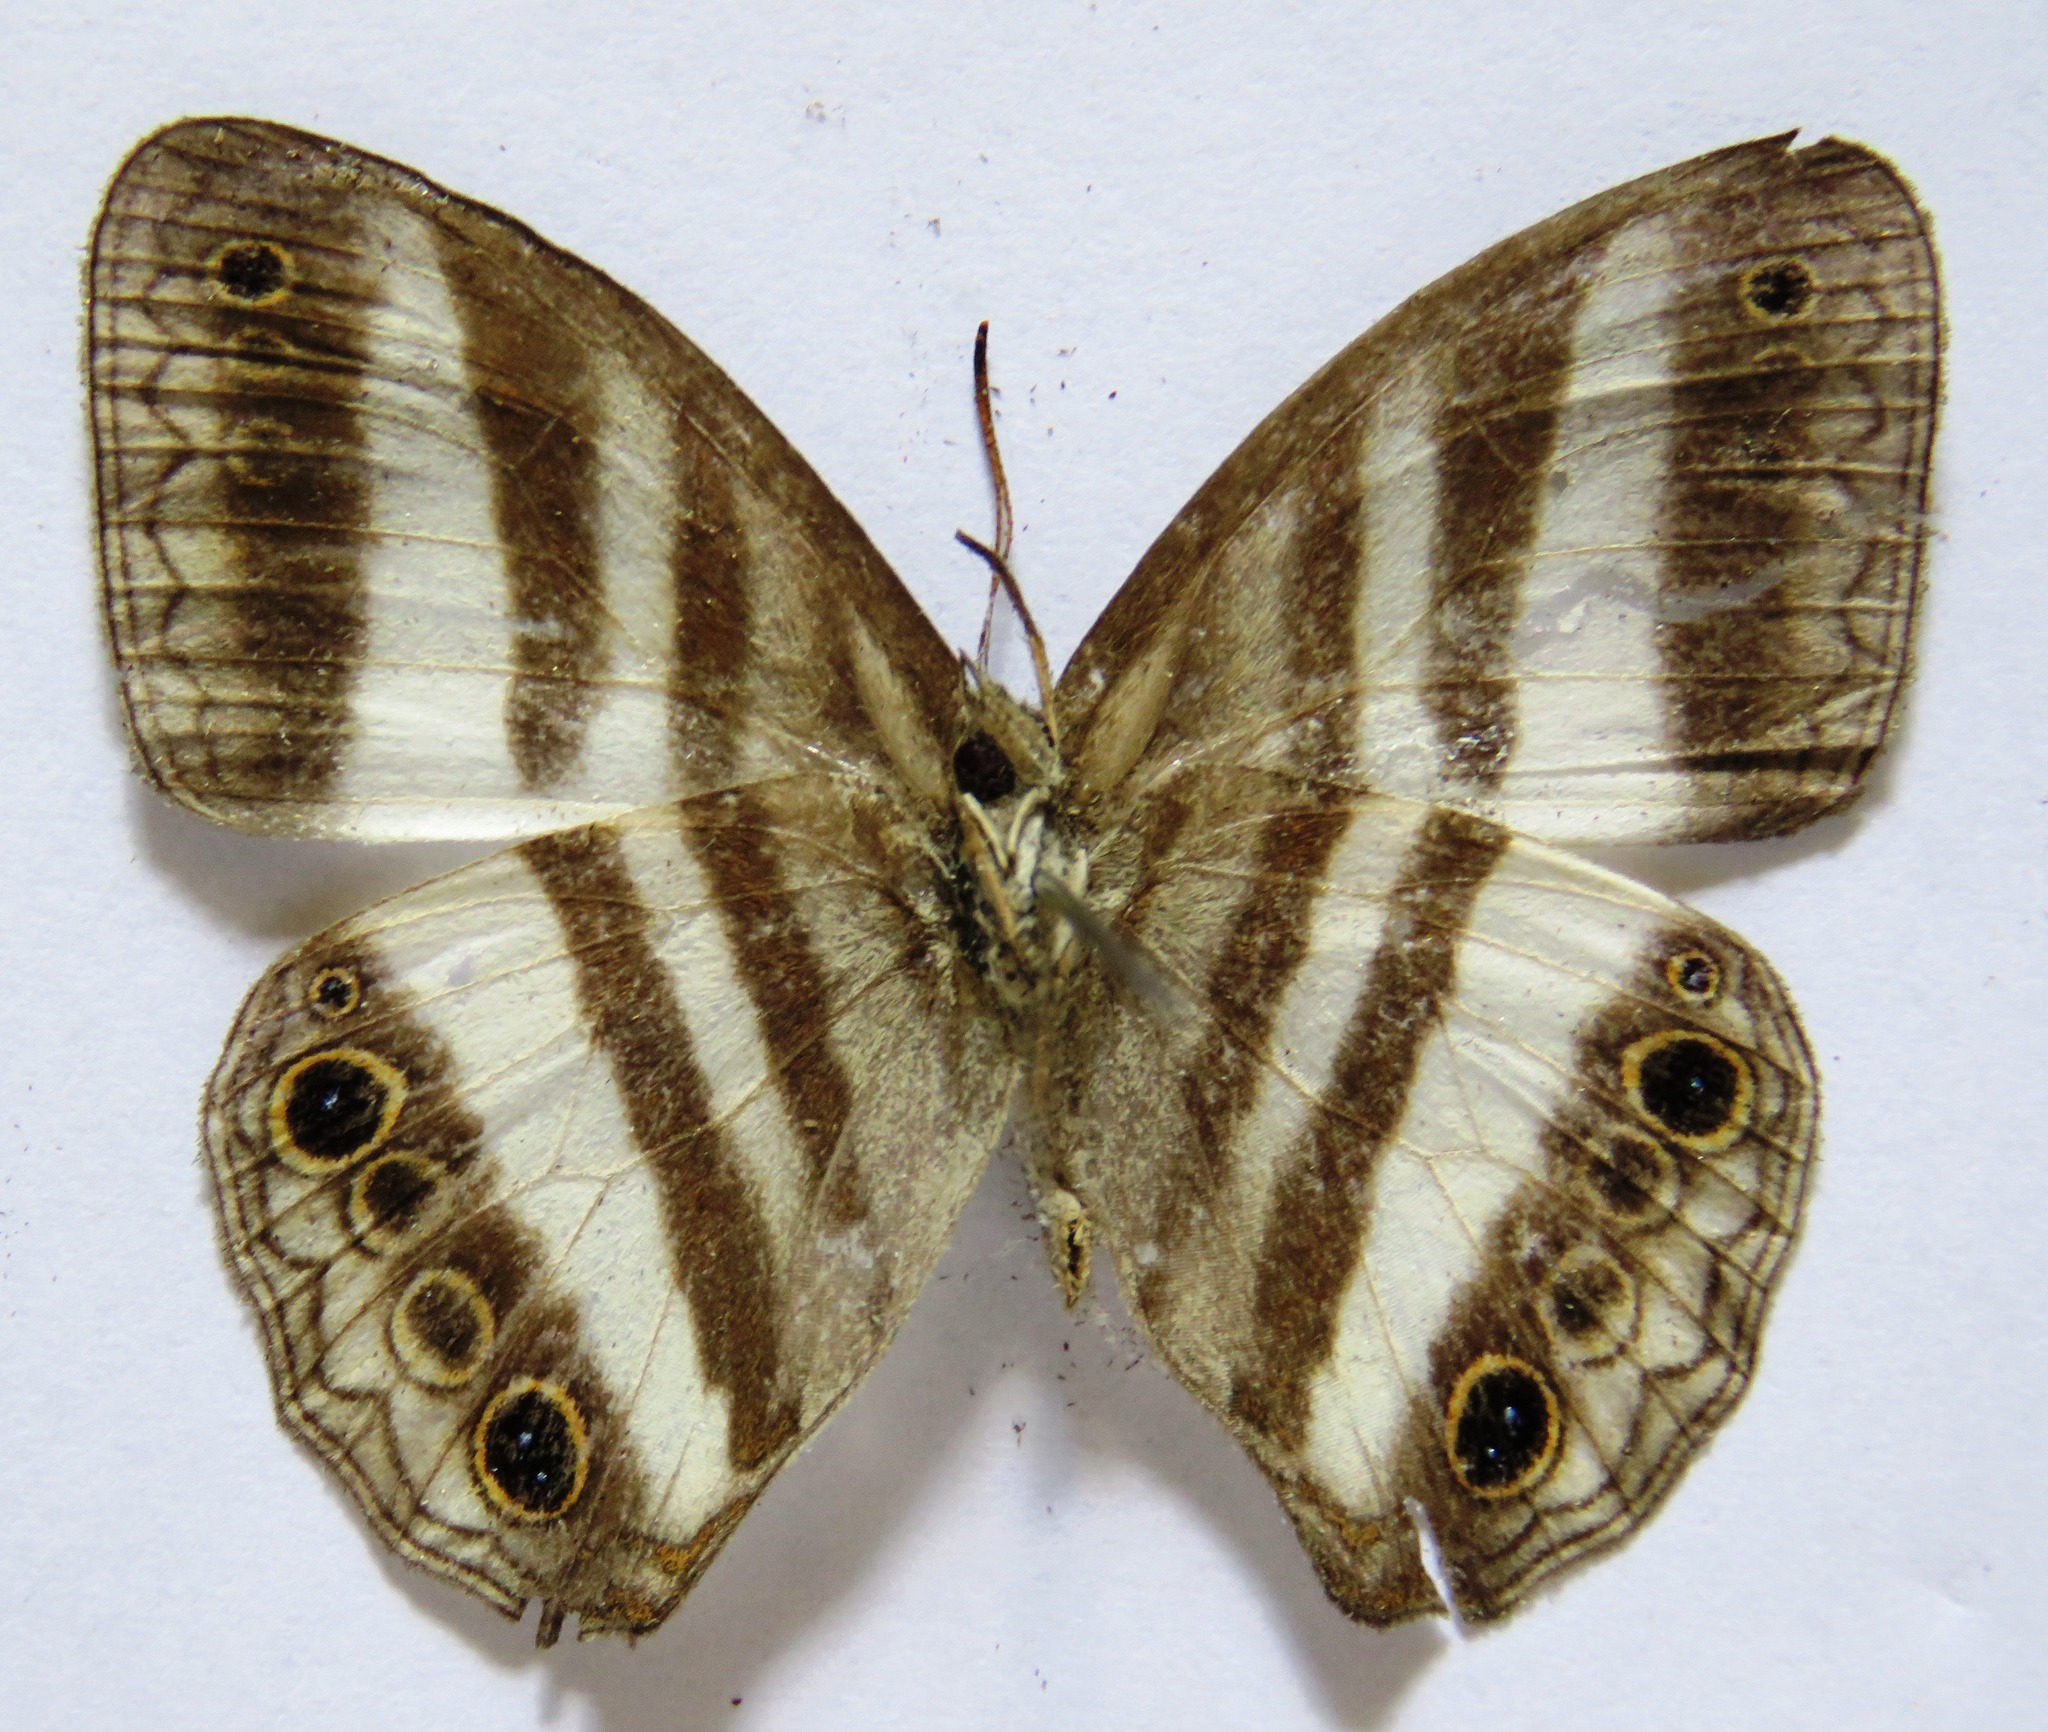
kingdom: Animalia
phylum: Arthropoda
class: Insecta
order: Lepidoptera
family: Nymphalidae
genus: Pareuptychia
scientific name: Pareuptychia hesione
